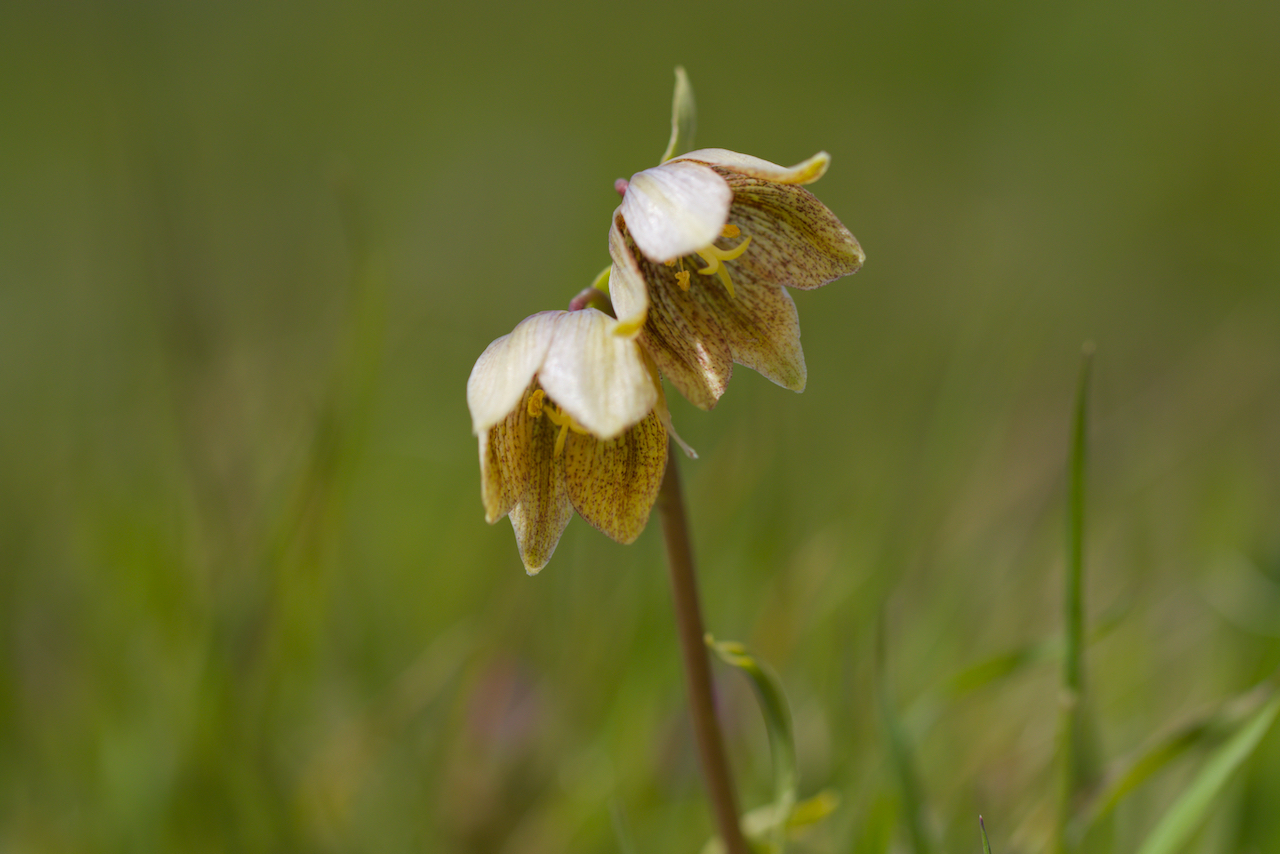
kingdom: Plantae
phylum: Tracheophyta
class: Liliopsida
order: Liliales
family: Liliaceae
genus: Fritillaria
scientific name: Fritillaria agrestis
